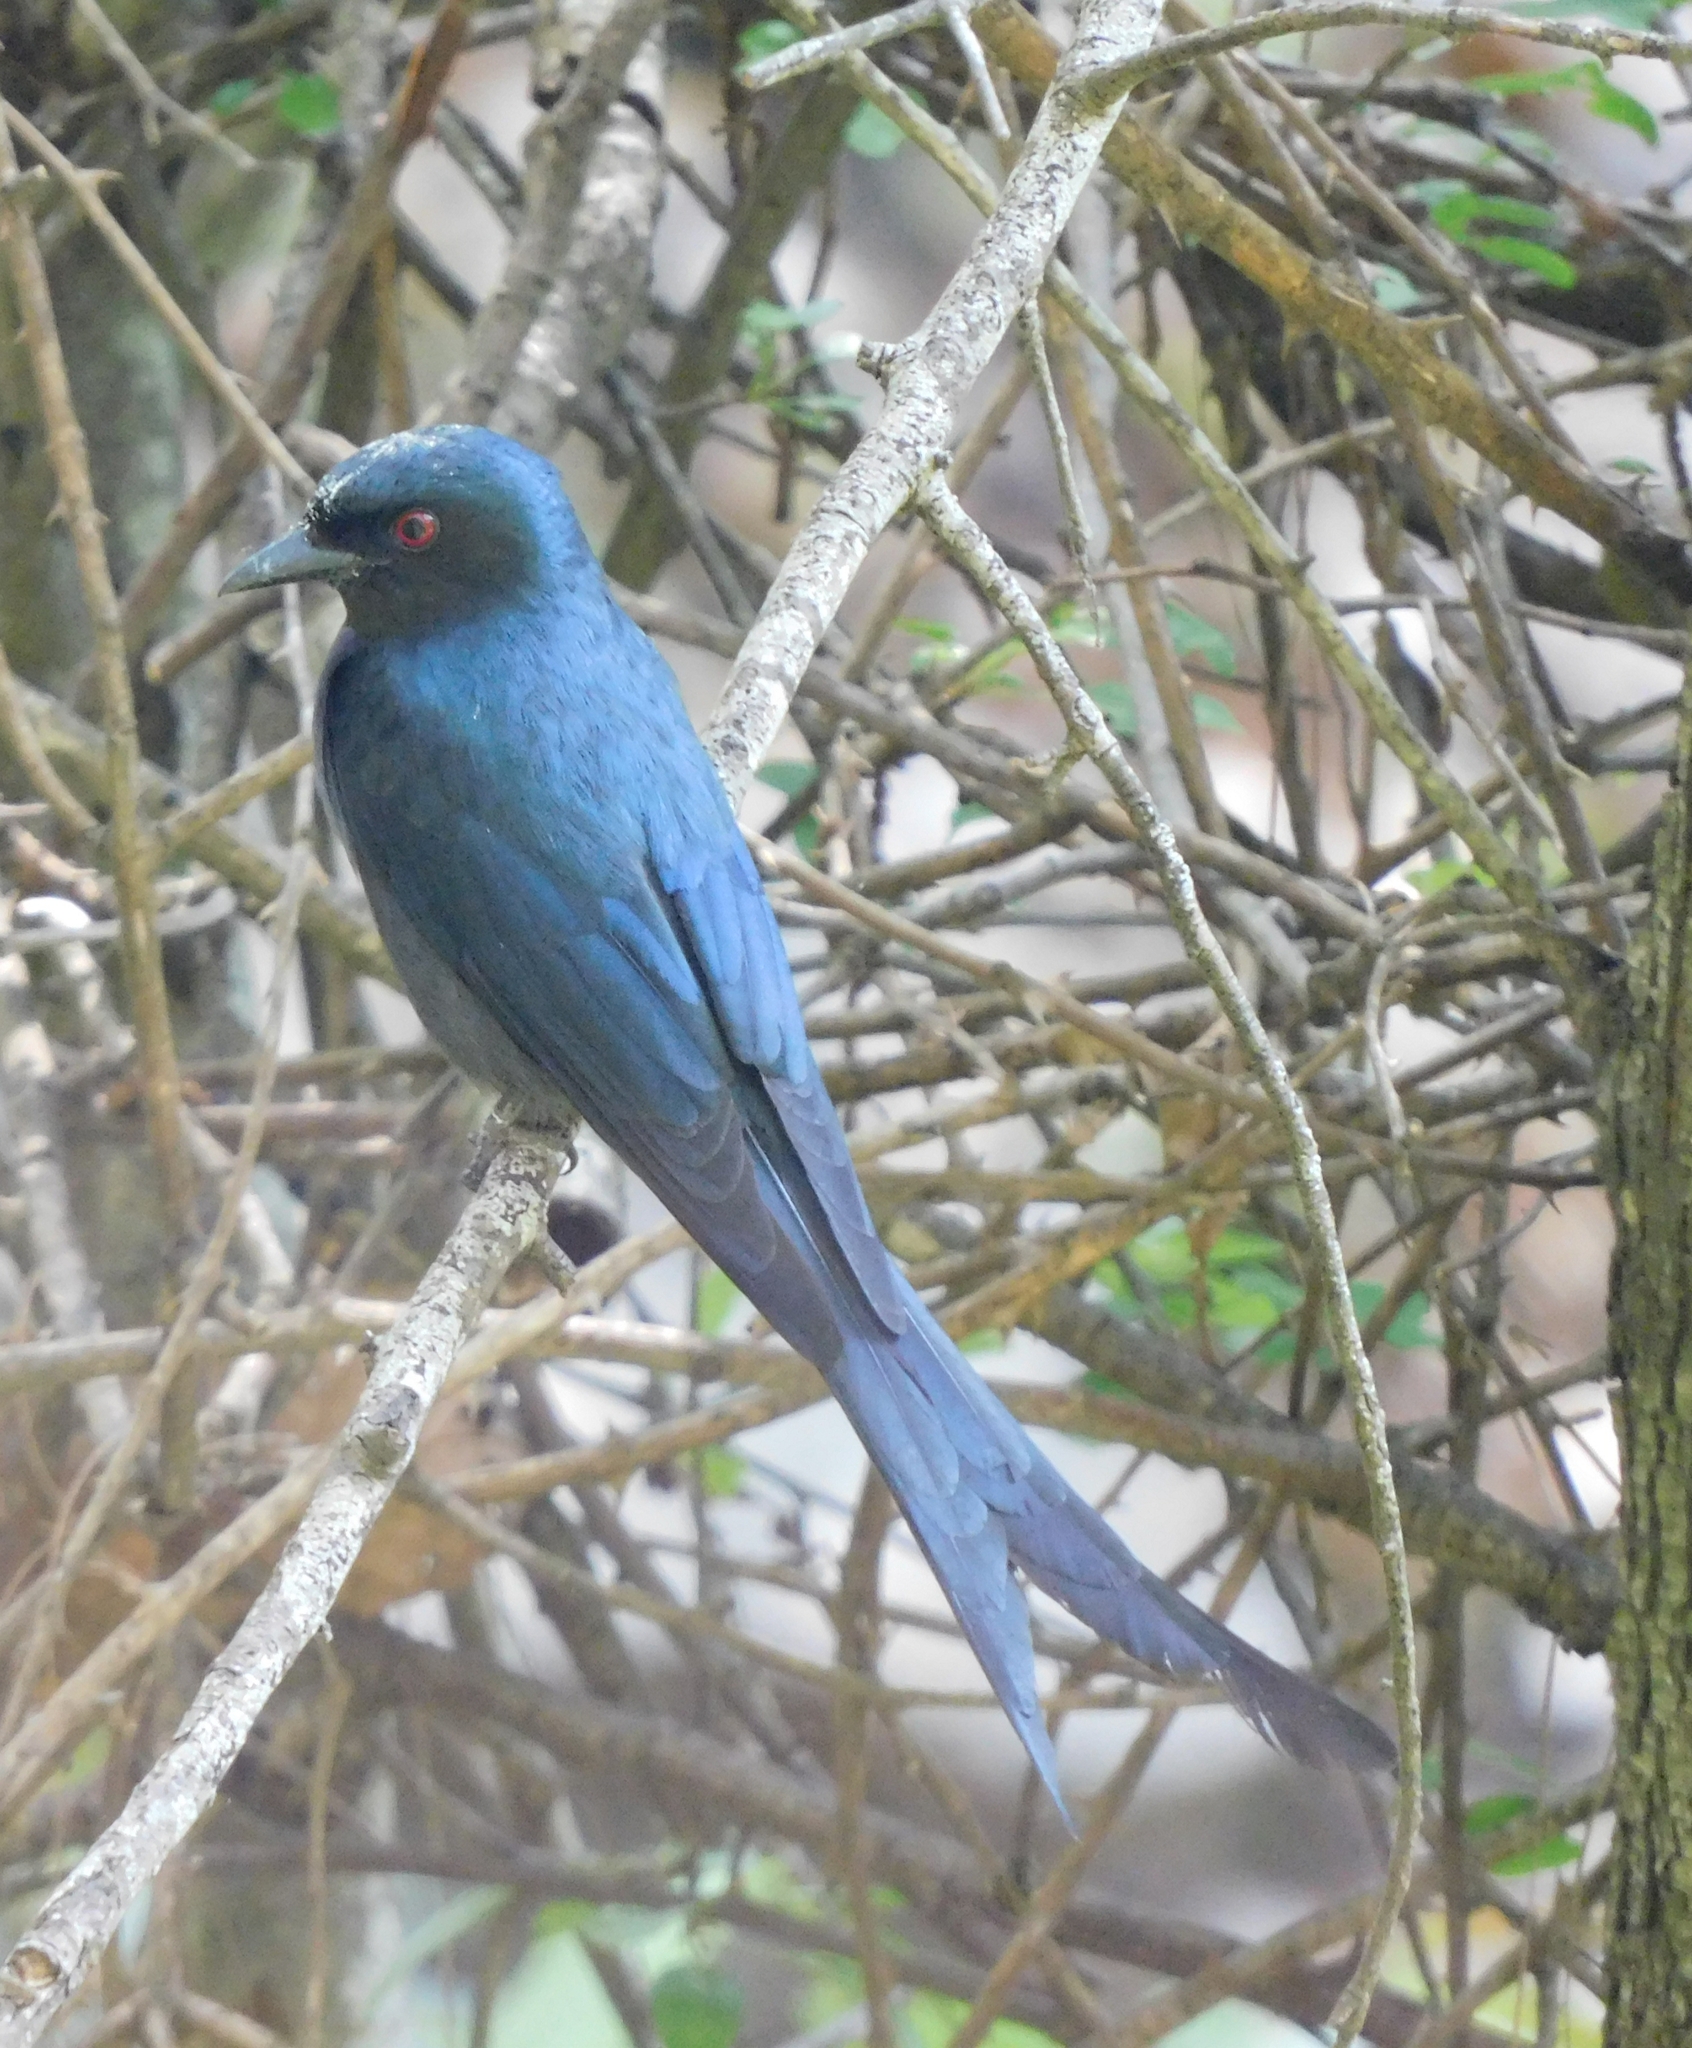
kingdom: Animalia
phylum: Chordata
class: Aves
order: Passeriformes
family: Dicruridae
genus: Dicrurus
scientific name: Dicrurus leucophaeus
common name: Ashy drongo
